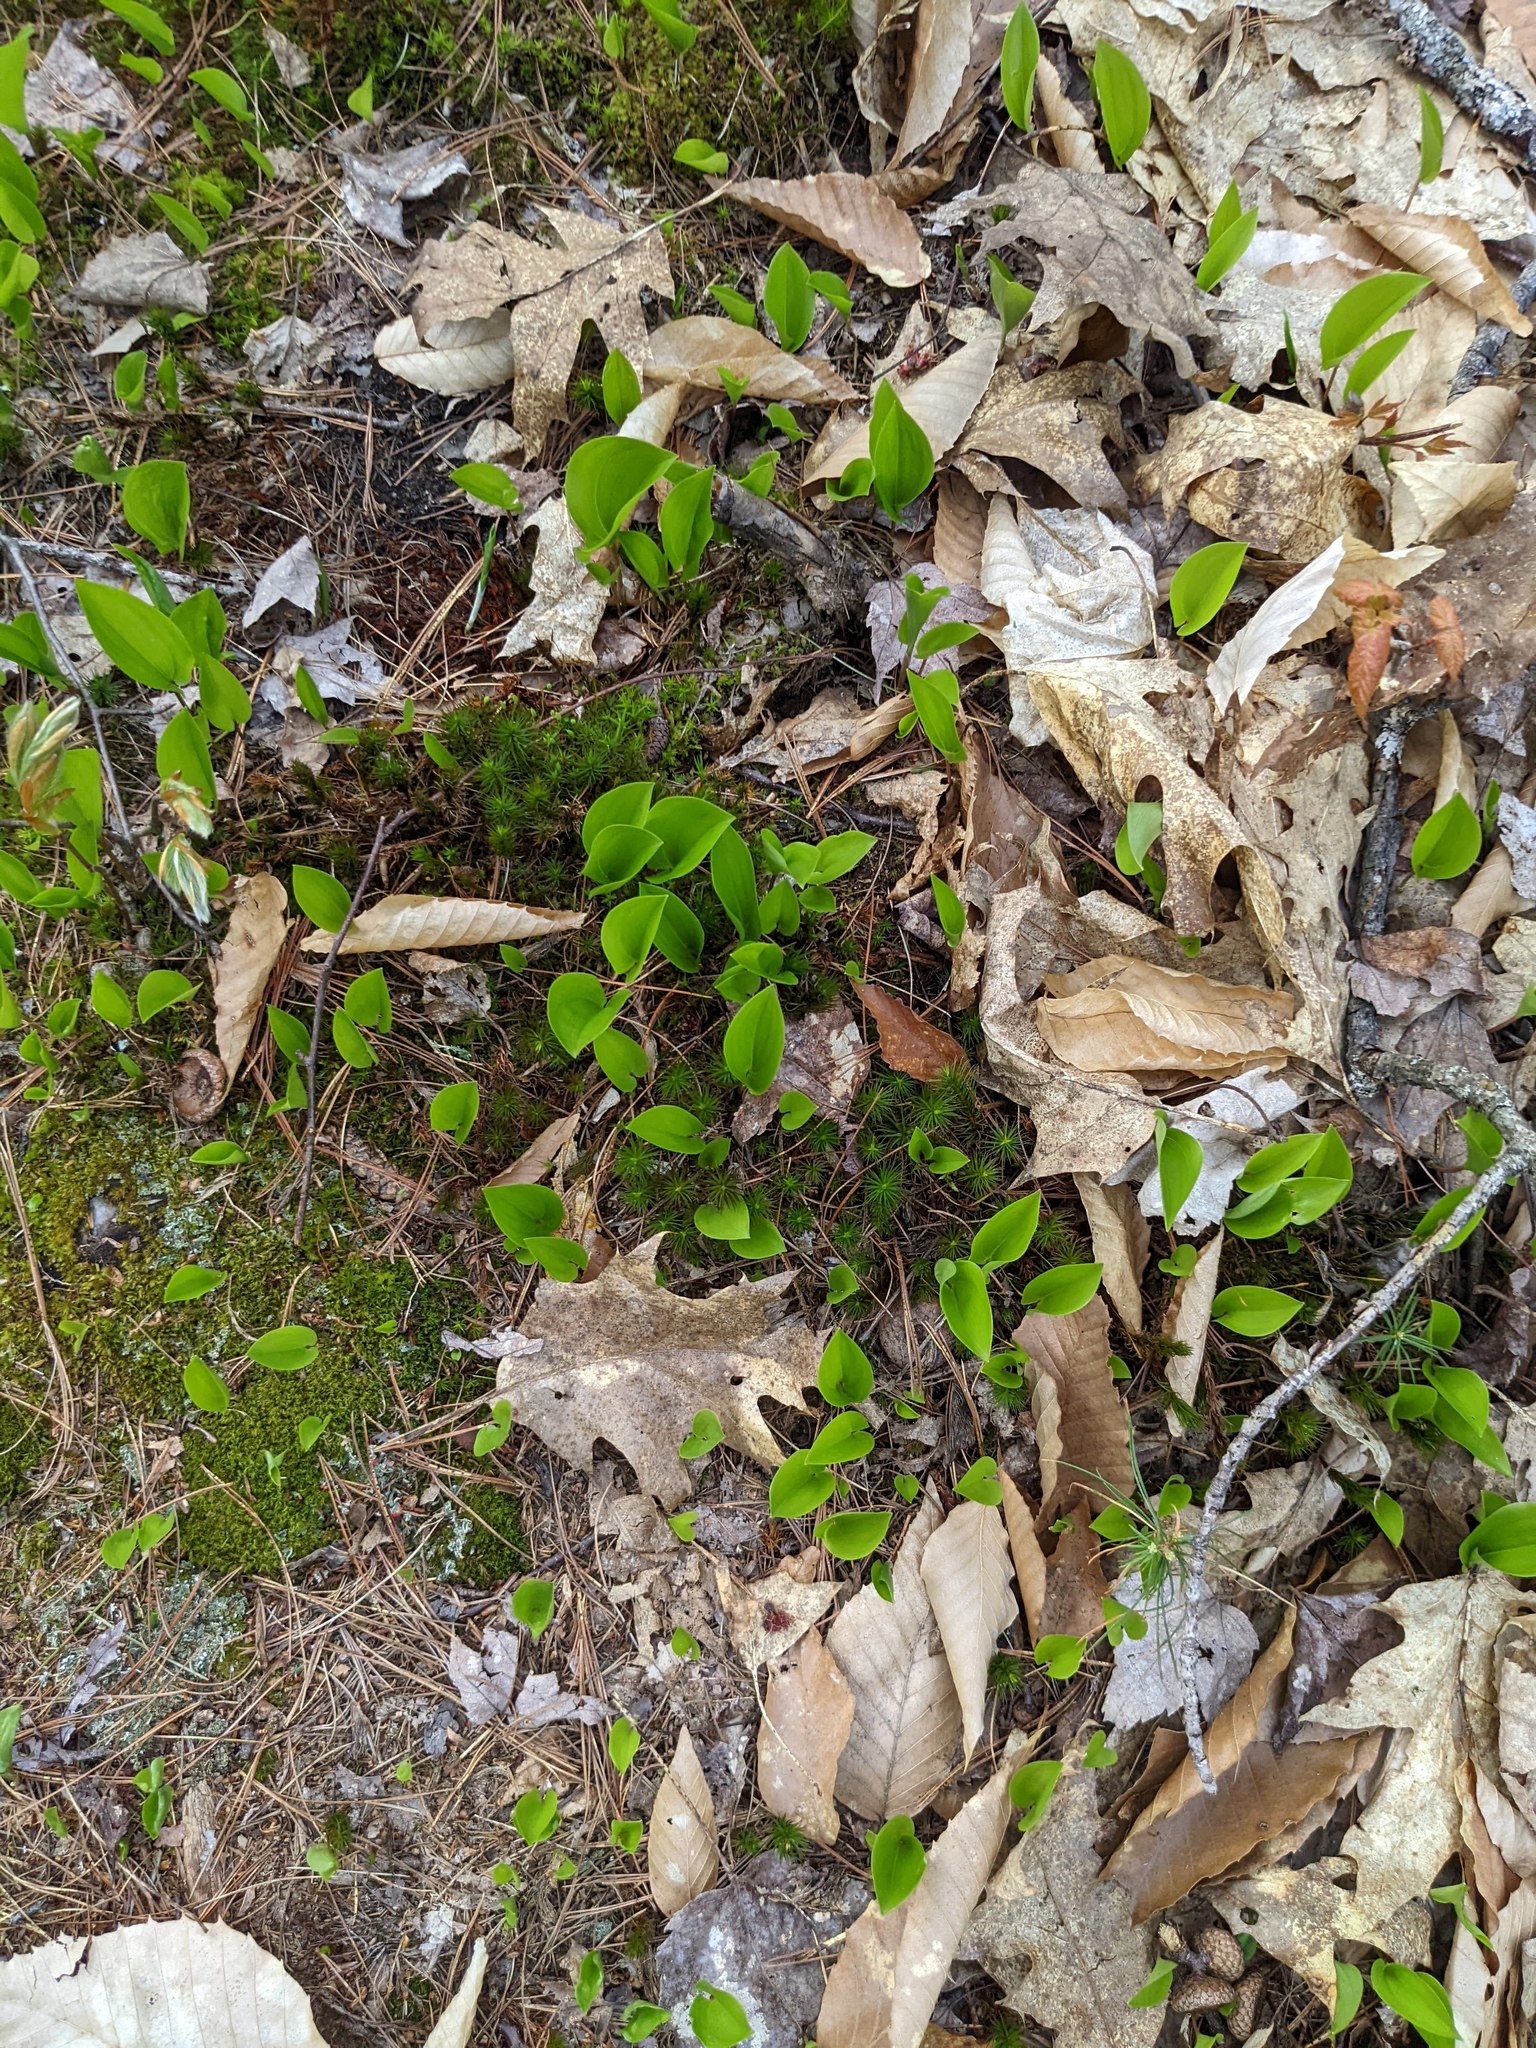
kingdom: Plantae
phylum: Tracheophyta
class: Liliopsida
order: Asparagales
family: Asparagaceae
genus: Maianthemum
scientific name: Maianthemum canadense
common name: False lily-of-the-valley
